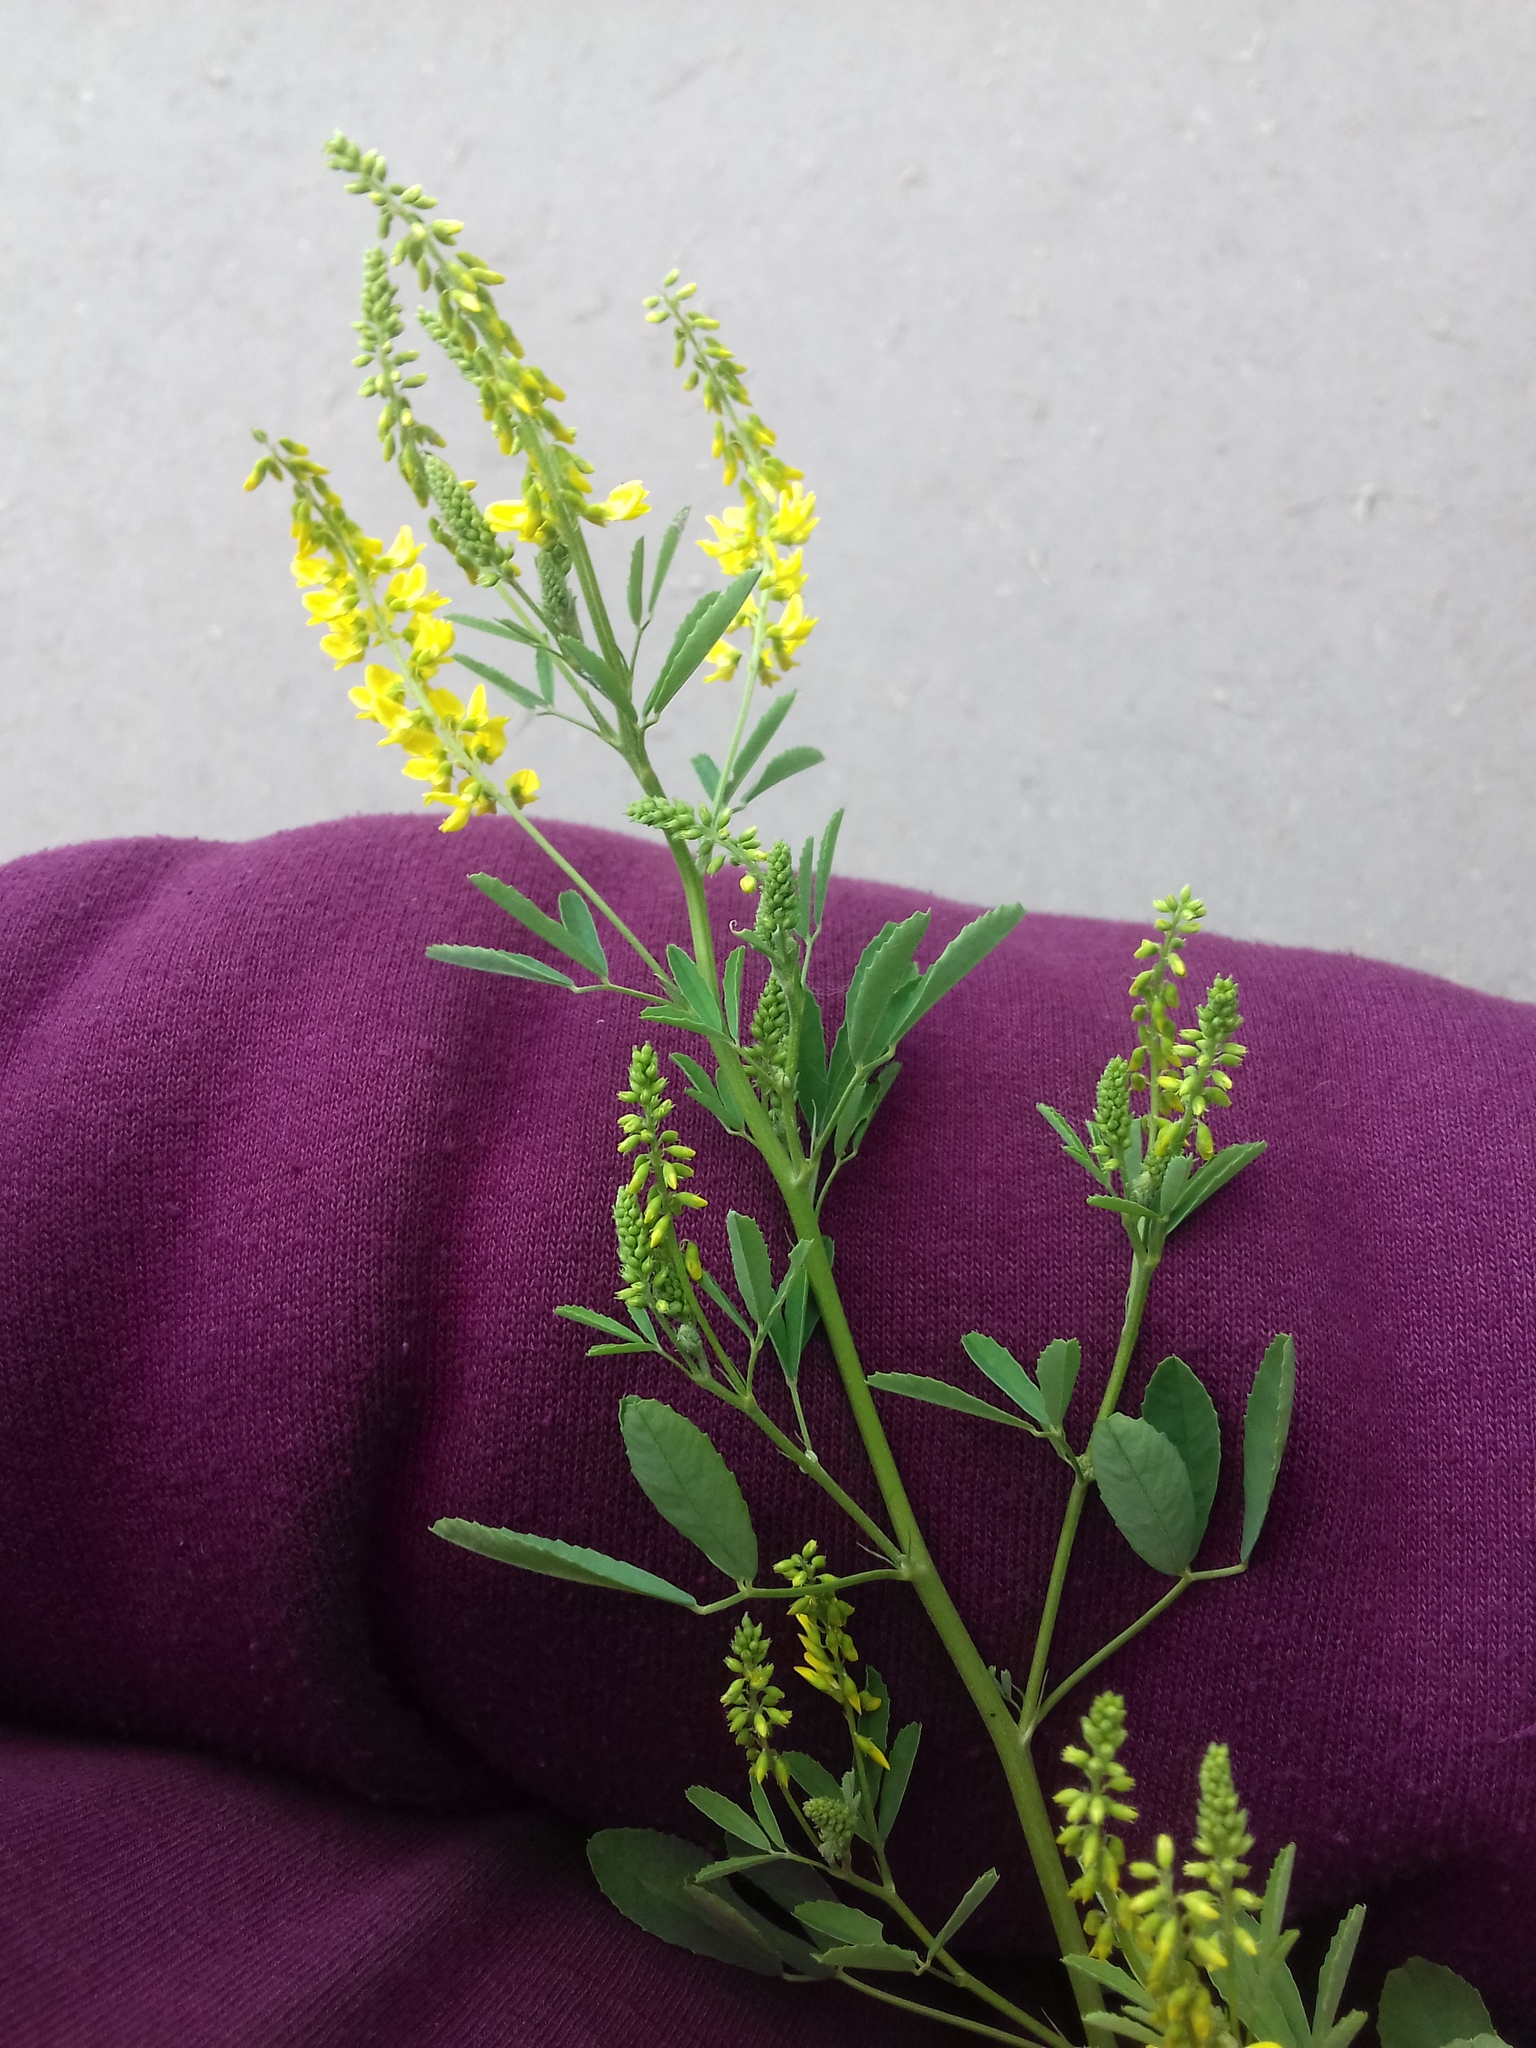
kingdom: Plantae
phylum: Tracheophyta
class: Magnoliopsida
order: Fabales
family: Fabaceae
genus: Melilotus
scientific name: Melilotus officinalis
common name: Sweetclover
